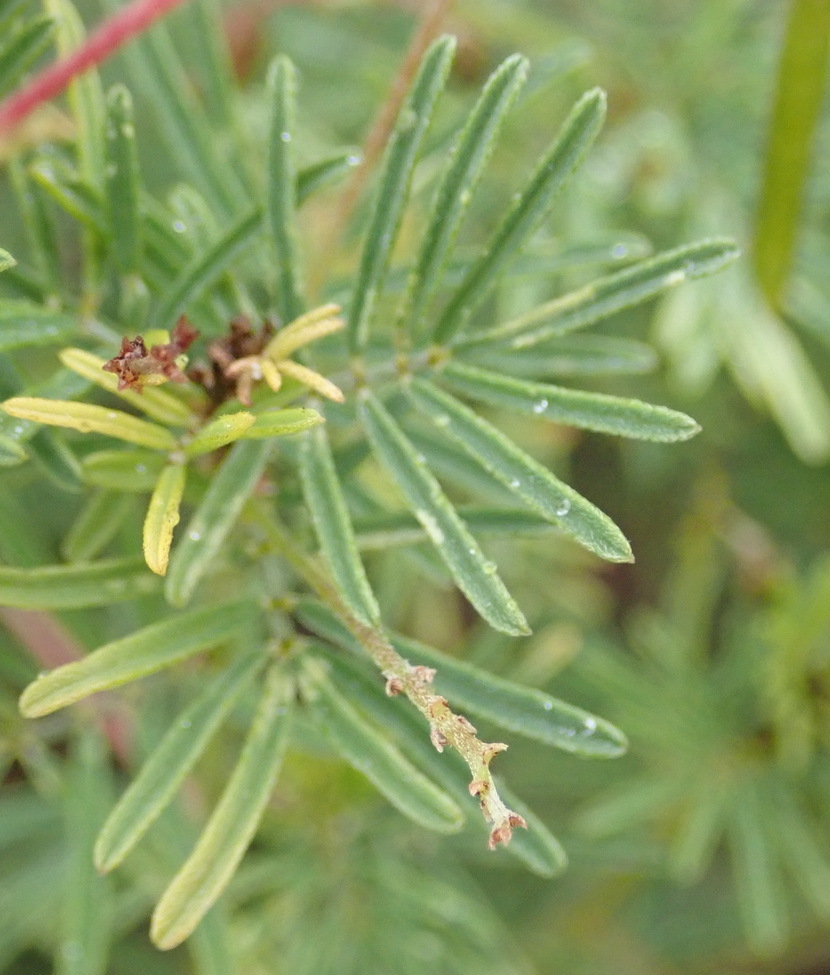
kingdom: Plantae
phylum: Tracheophyta
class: Magnoliopsida
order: Fabales
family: Fabaceae
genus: Indigofera
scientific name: Indigofera verrucosa
